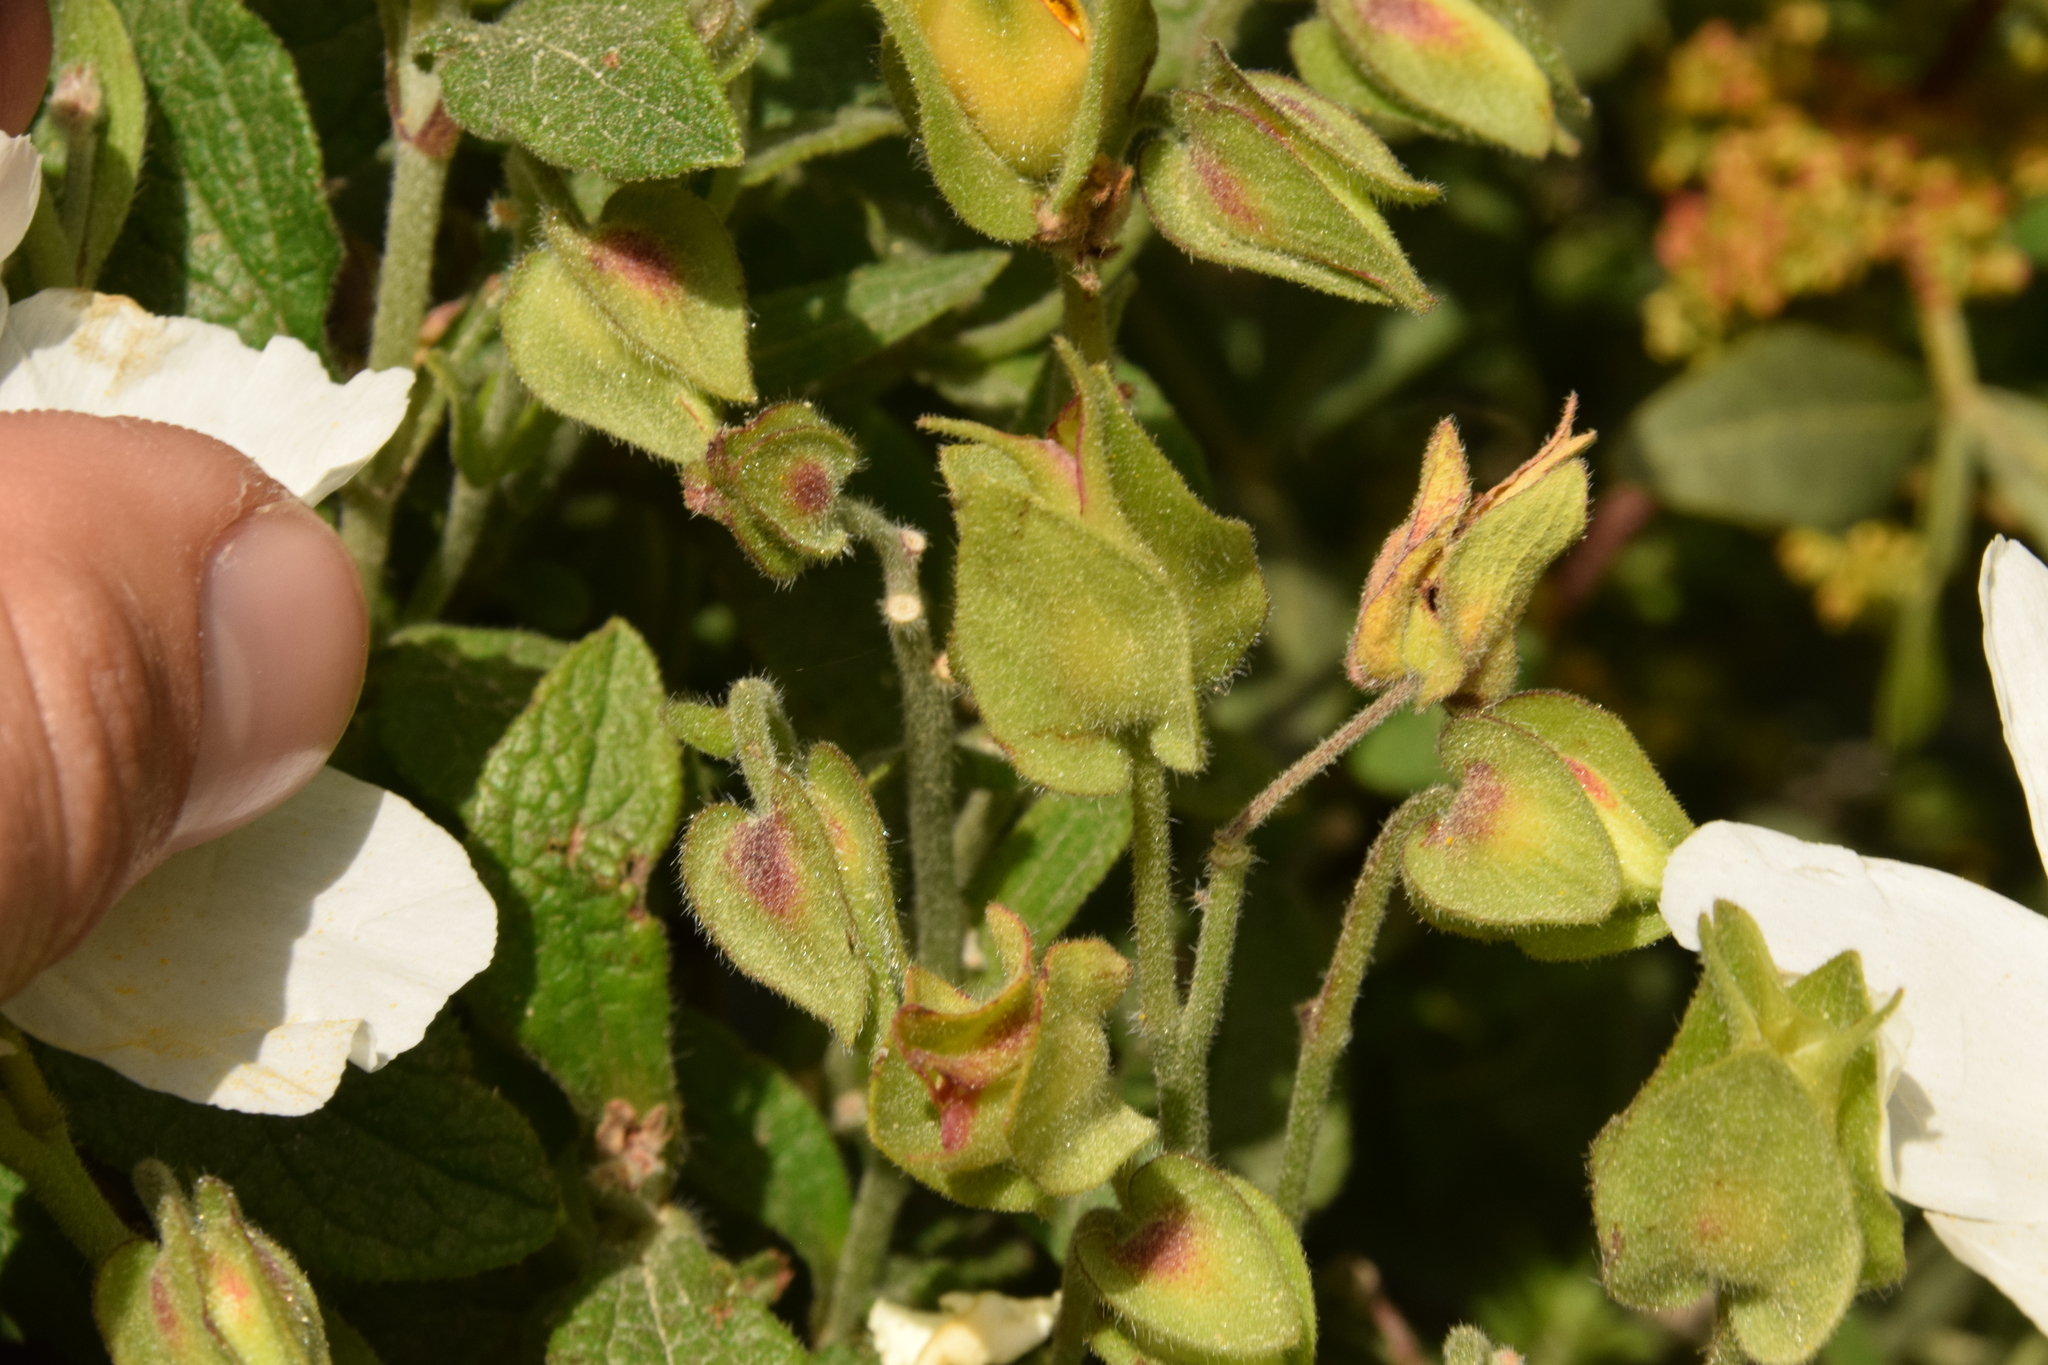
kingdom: Plantae
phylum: Tracheophyta
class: Magnoliopsida
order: Malvales
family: Cistaceae
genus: Cistus
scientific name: Cistus salviifolius
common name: Salvia cistus
